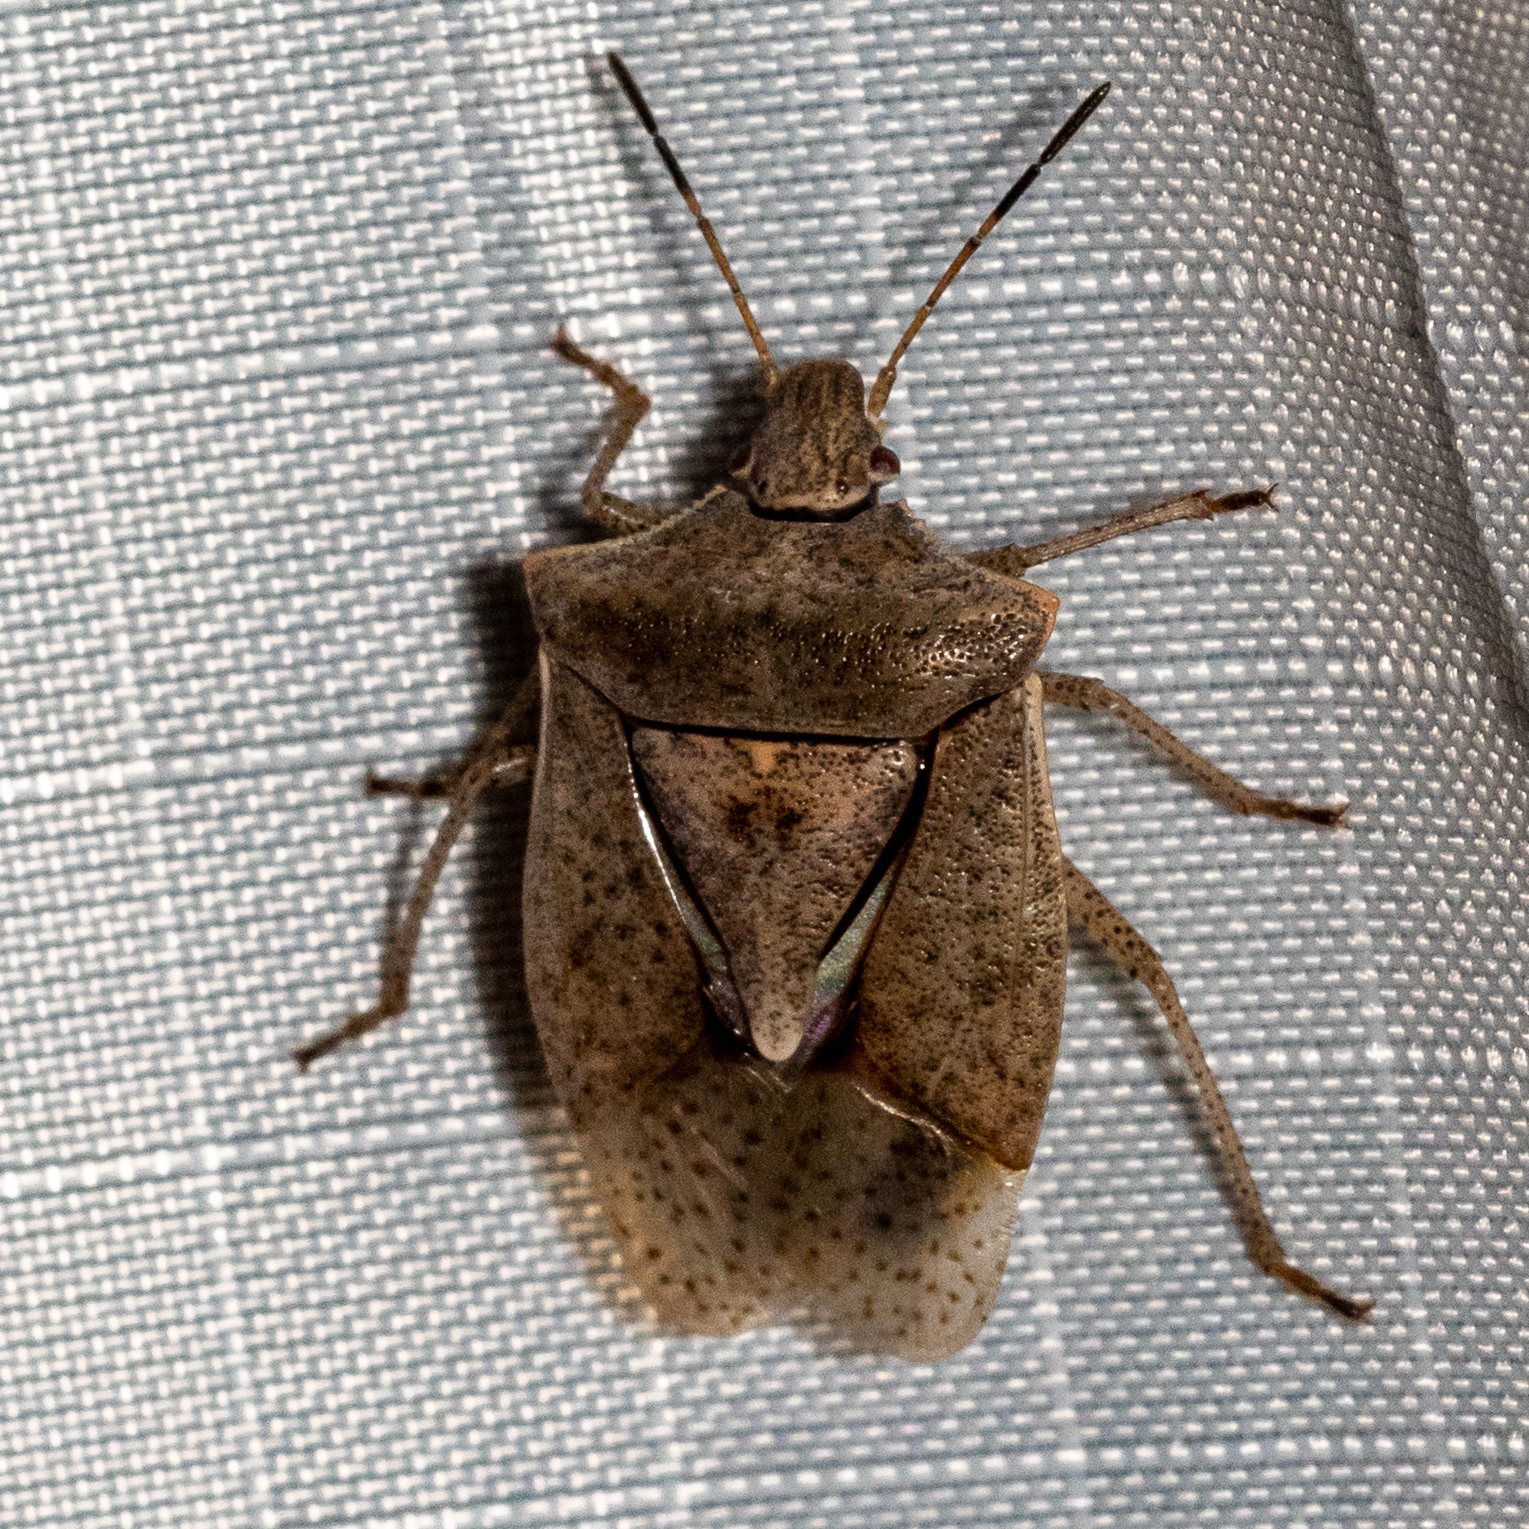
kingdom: Animalia
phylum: Arthropoda
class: Insecta
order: Hemiptera
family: Pentatomidae
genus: Euschistus
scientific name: Euschistus servus
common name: Brown stink bug
